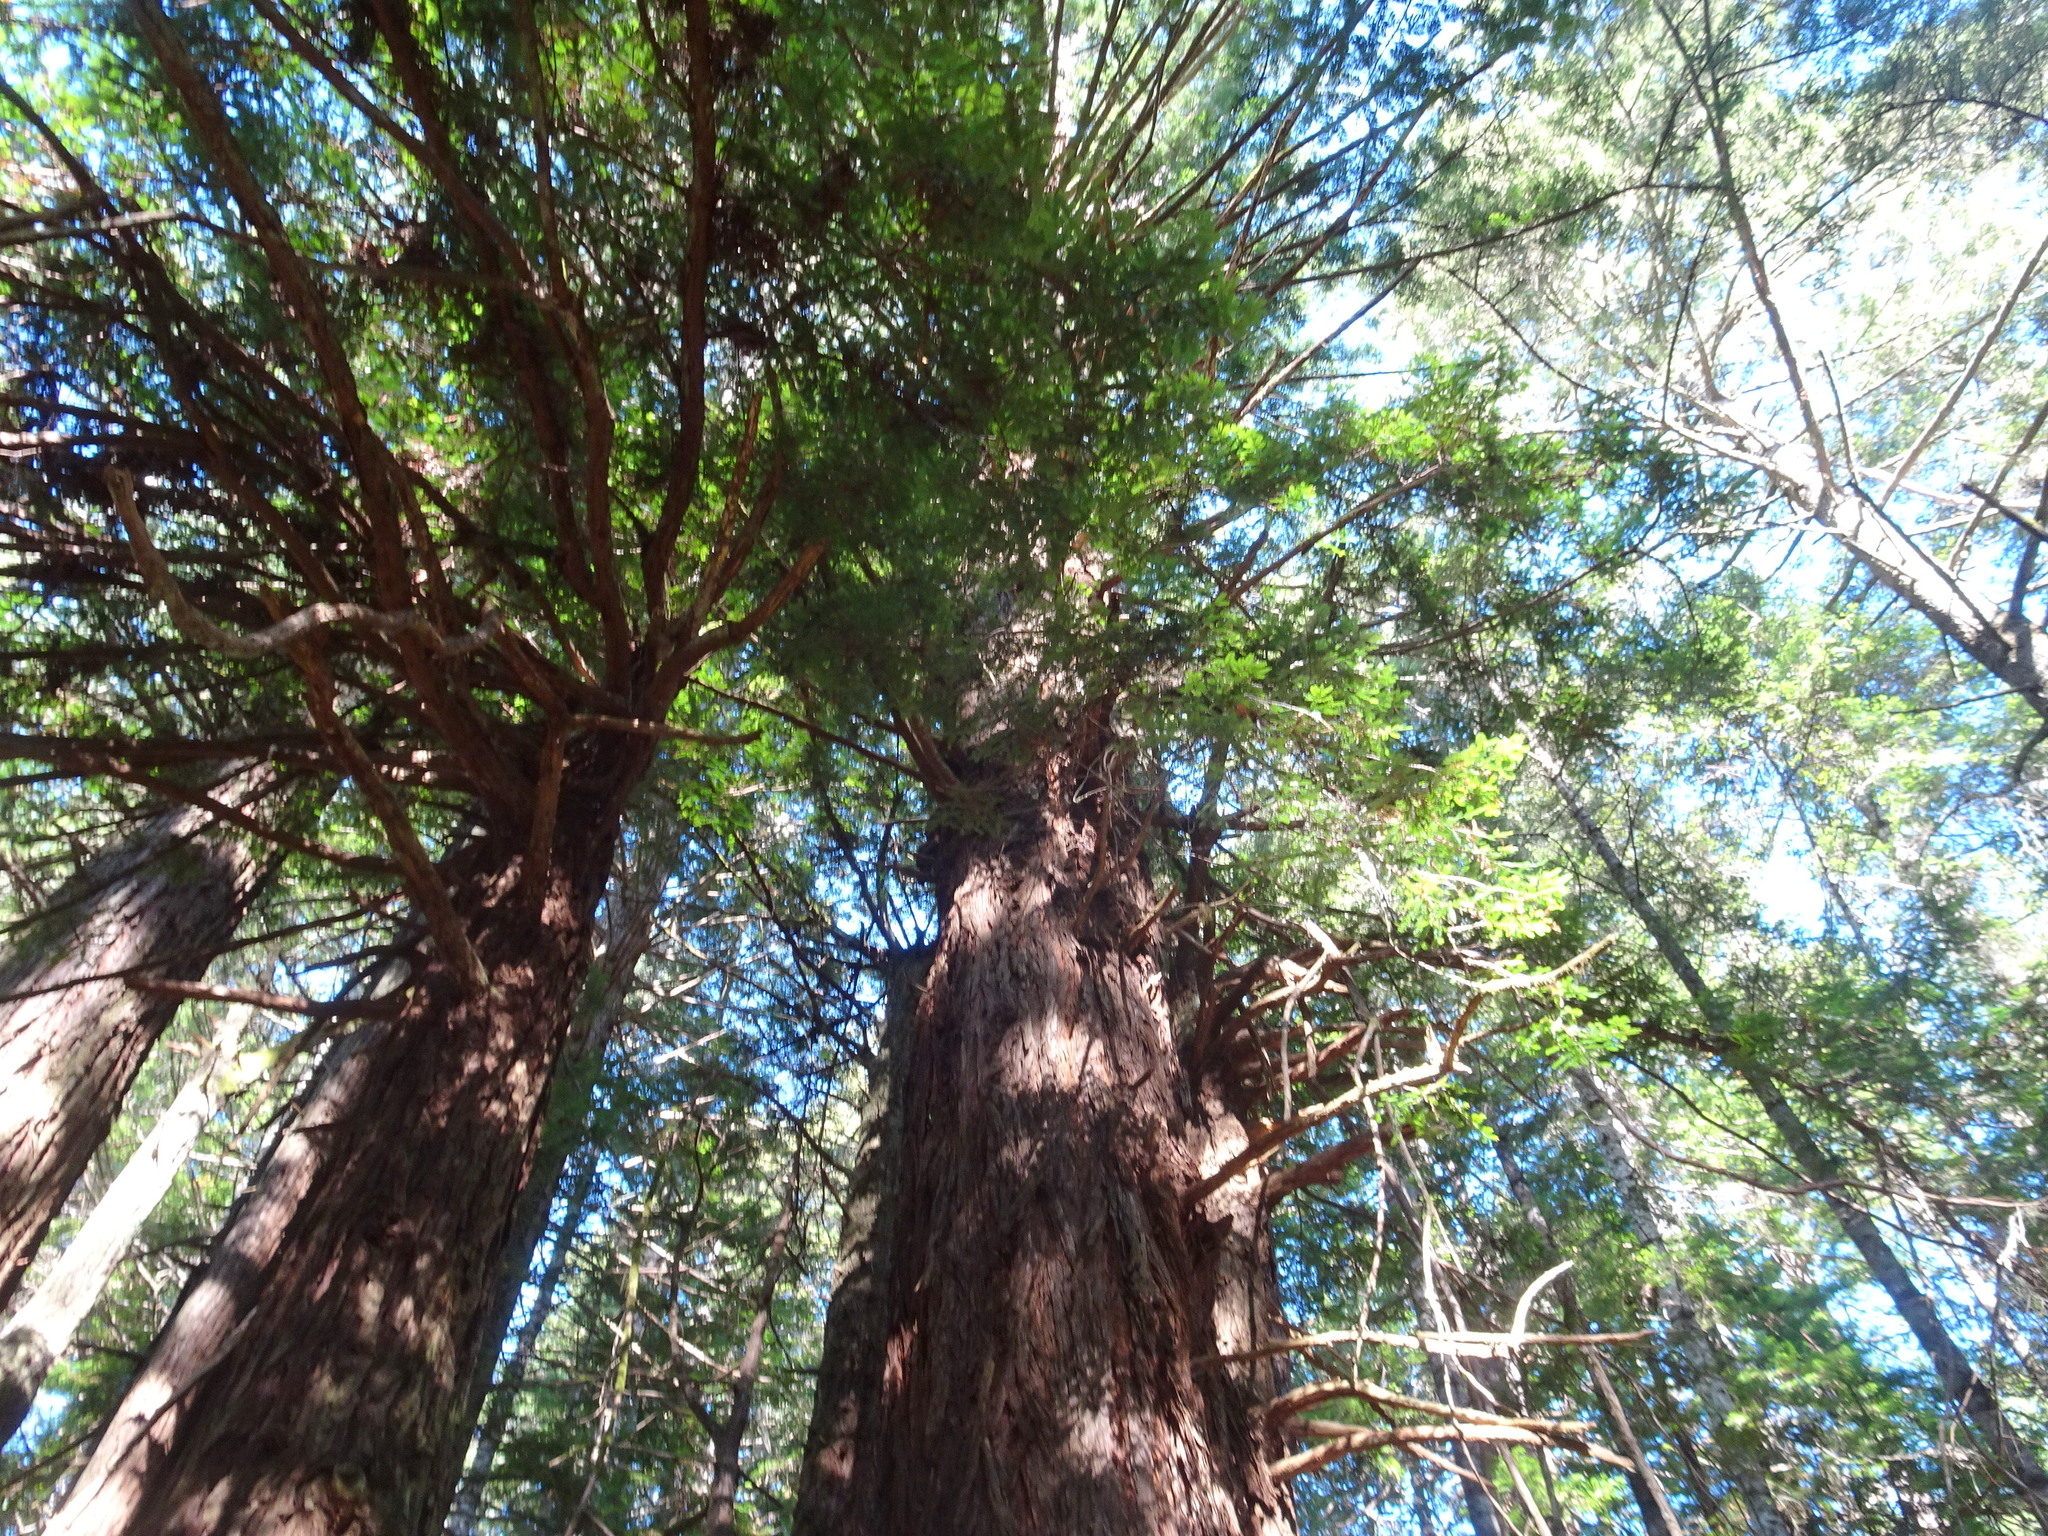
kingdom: Plantae
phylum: Tracheophyta
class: Pinopsida
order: Pinales
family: Cupressaceae
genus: Sequoia
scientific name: Sequoia sempervirens
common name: Coast redwood
